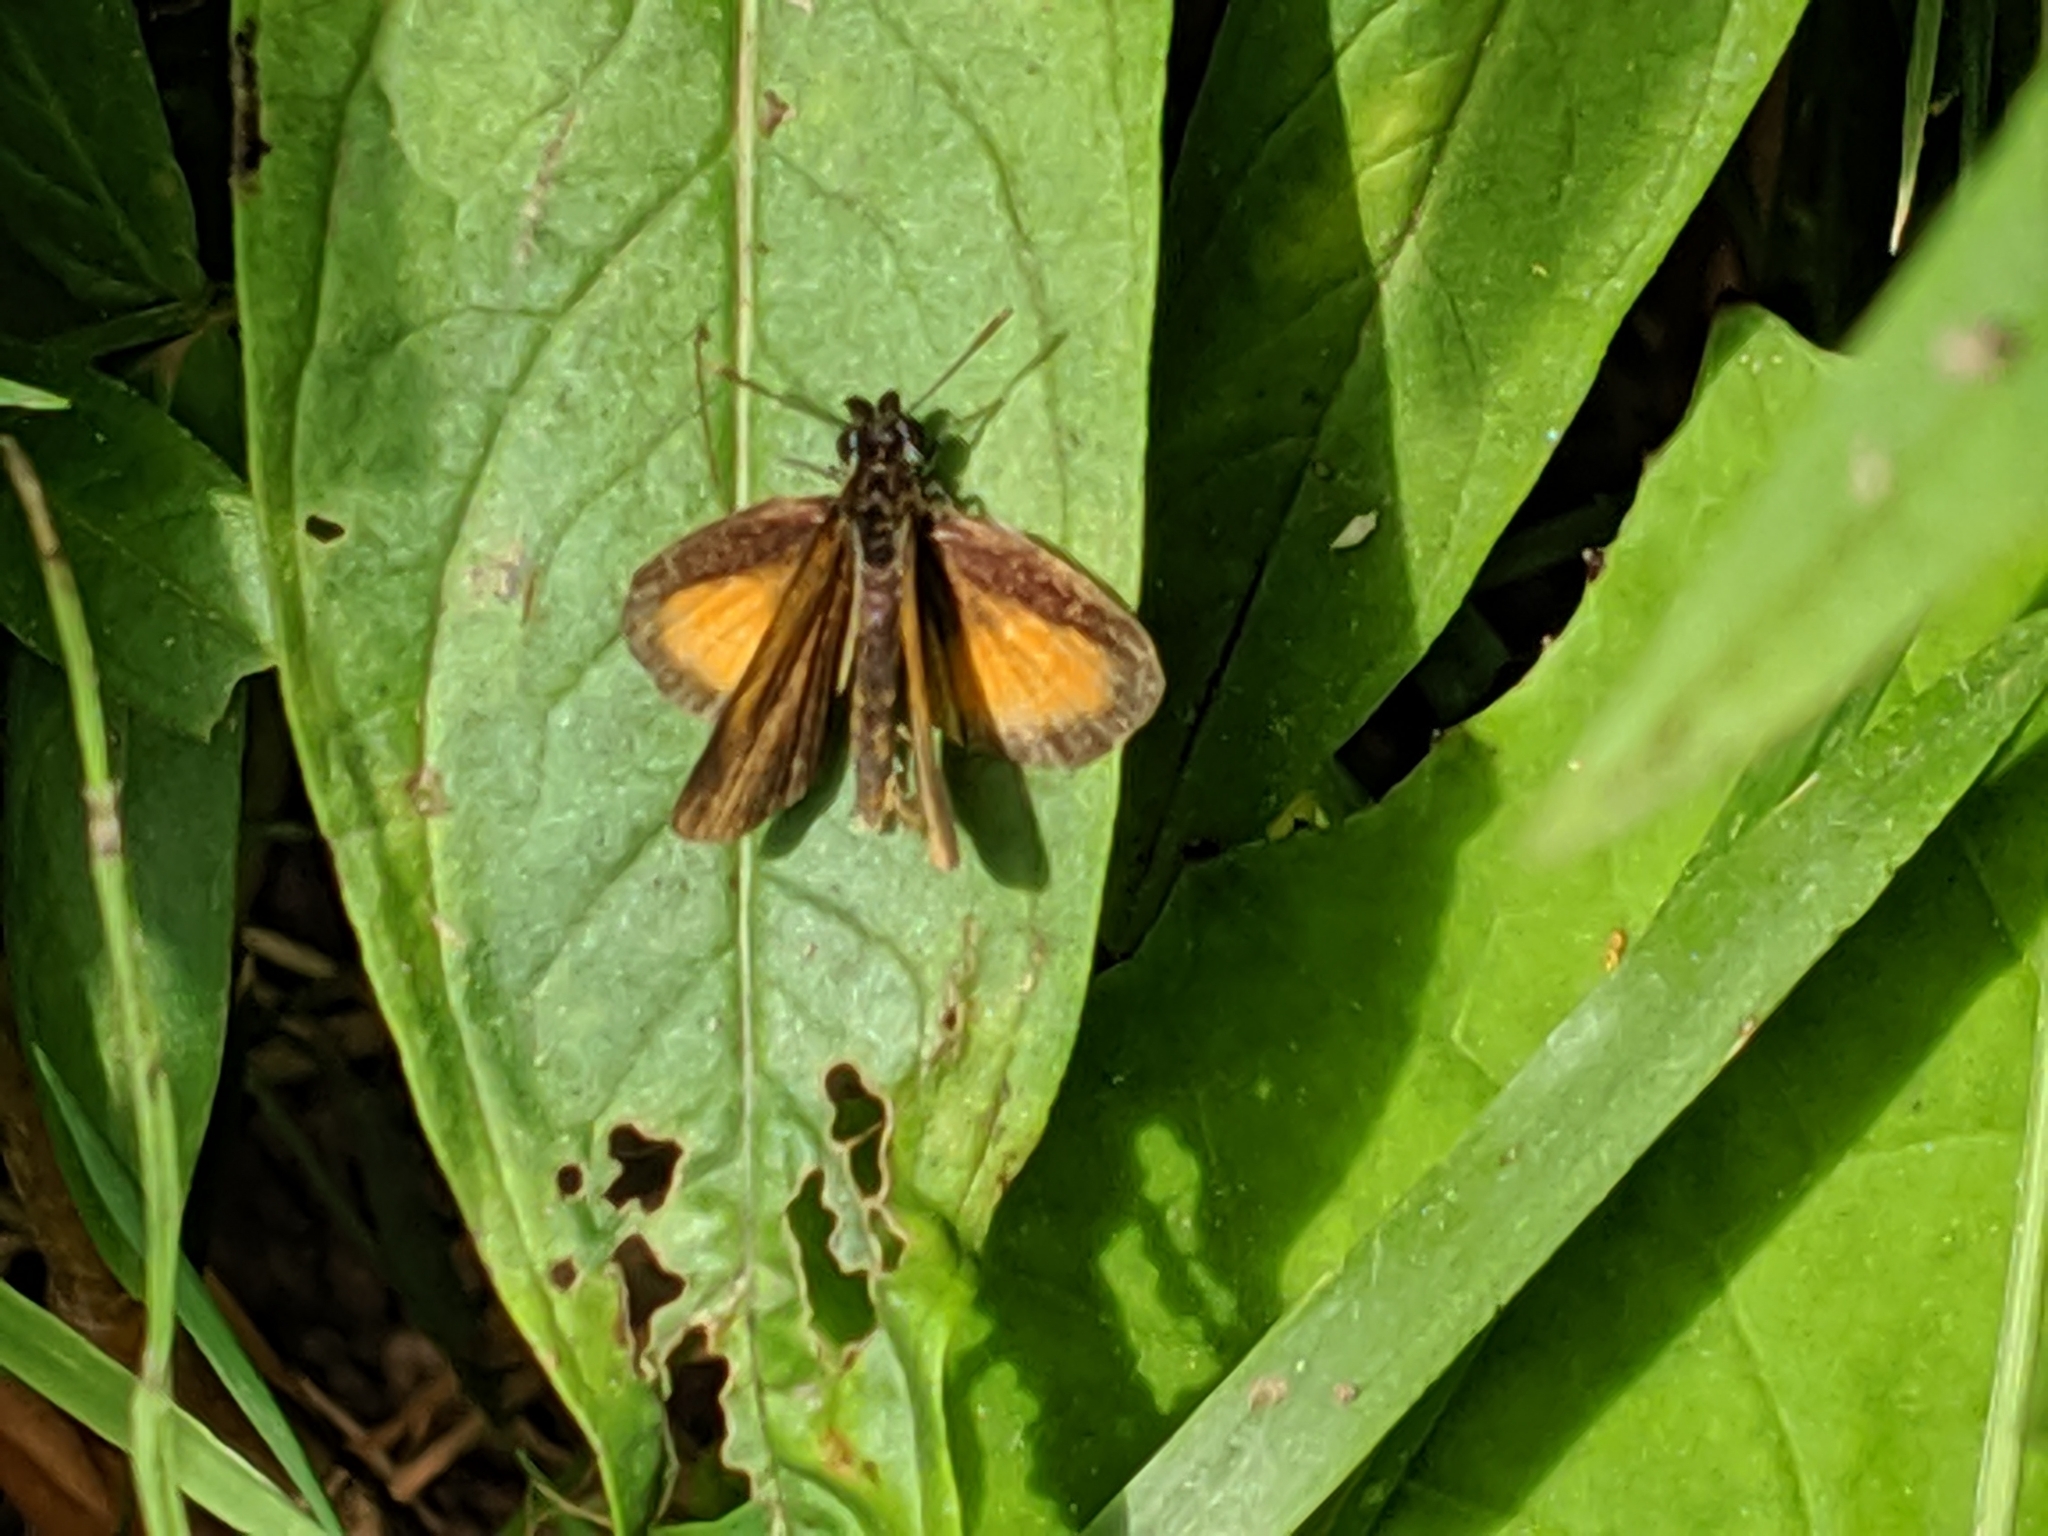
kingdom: Animalia
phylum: Arthropoda
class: Insecta
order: Lepidoptera
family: Hesperiidae
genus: Ancyloxypha
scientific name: Ancyloxypha numitor
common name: Least skipper
